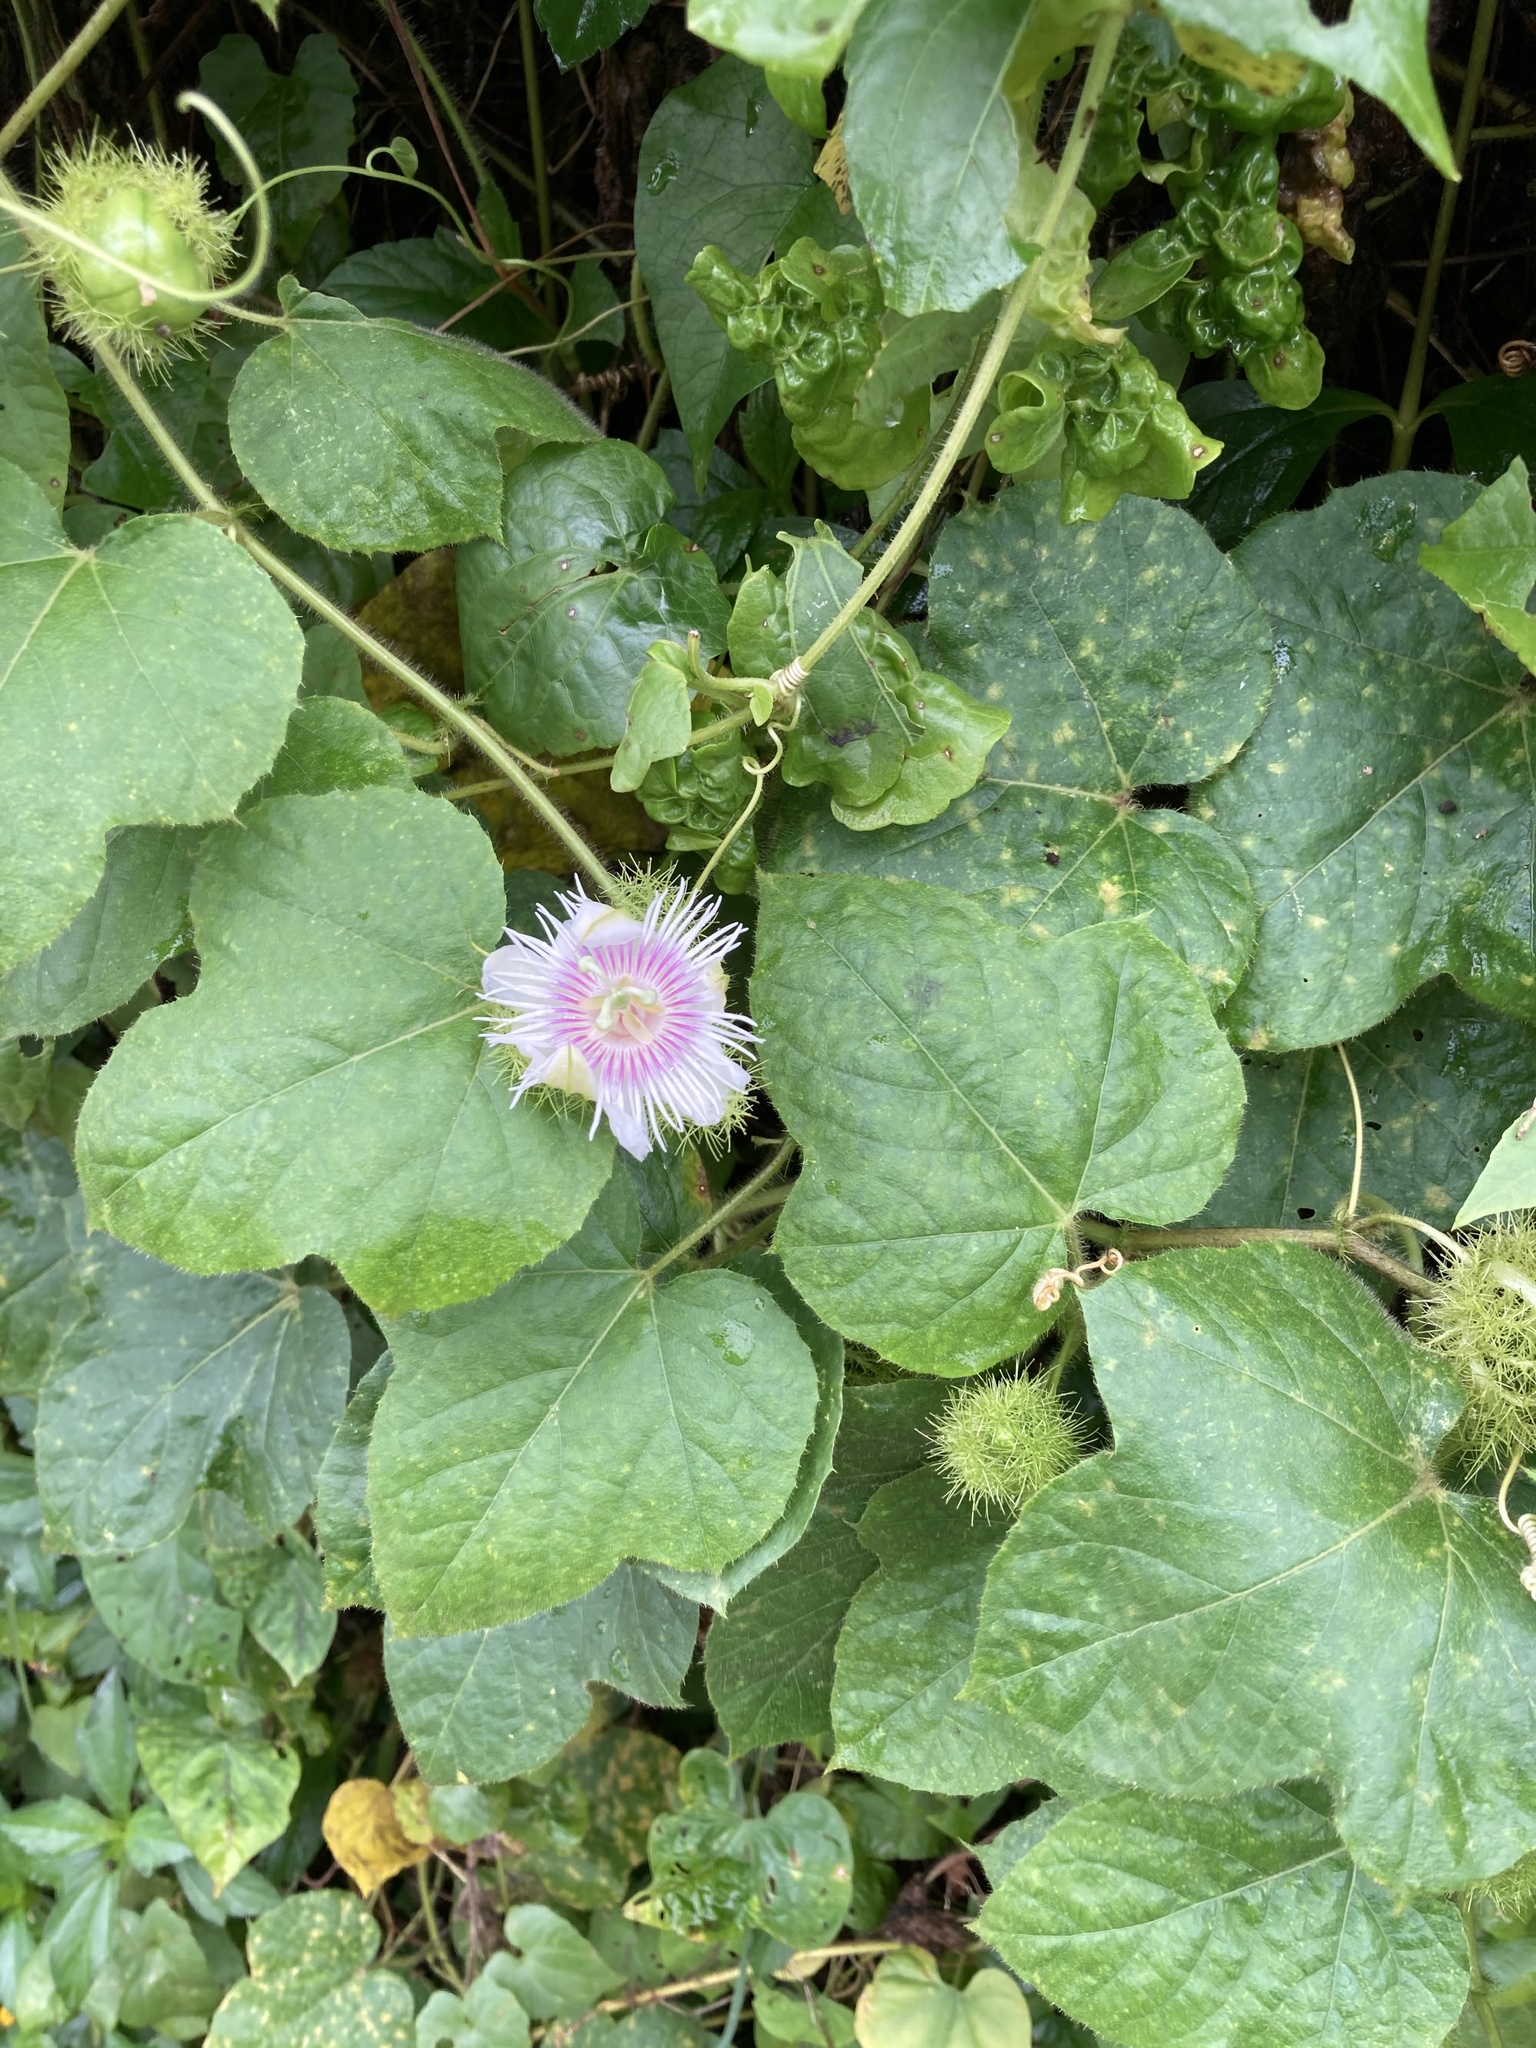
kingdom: Plantae
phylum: Tracheophyta
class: Magnoliopsida
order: Malpighiales
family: Passifloraceae
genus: Passiflora
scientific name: Passiflora foetida
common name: Fetid passionflower
